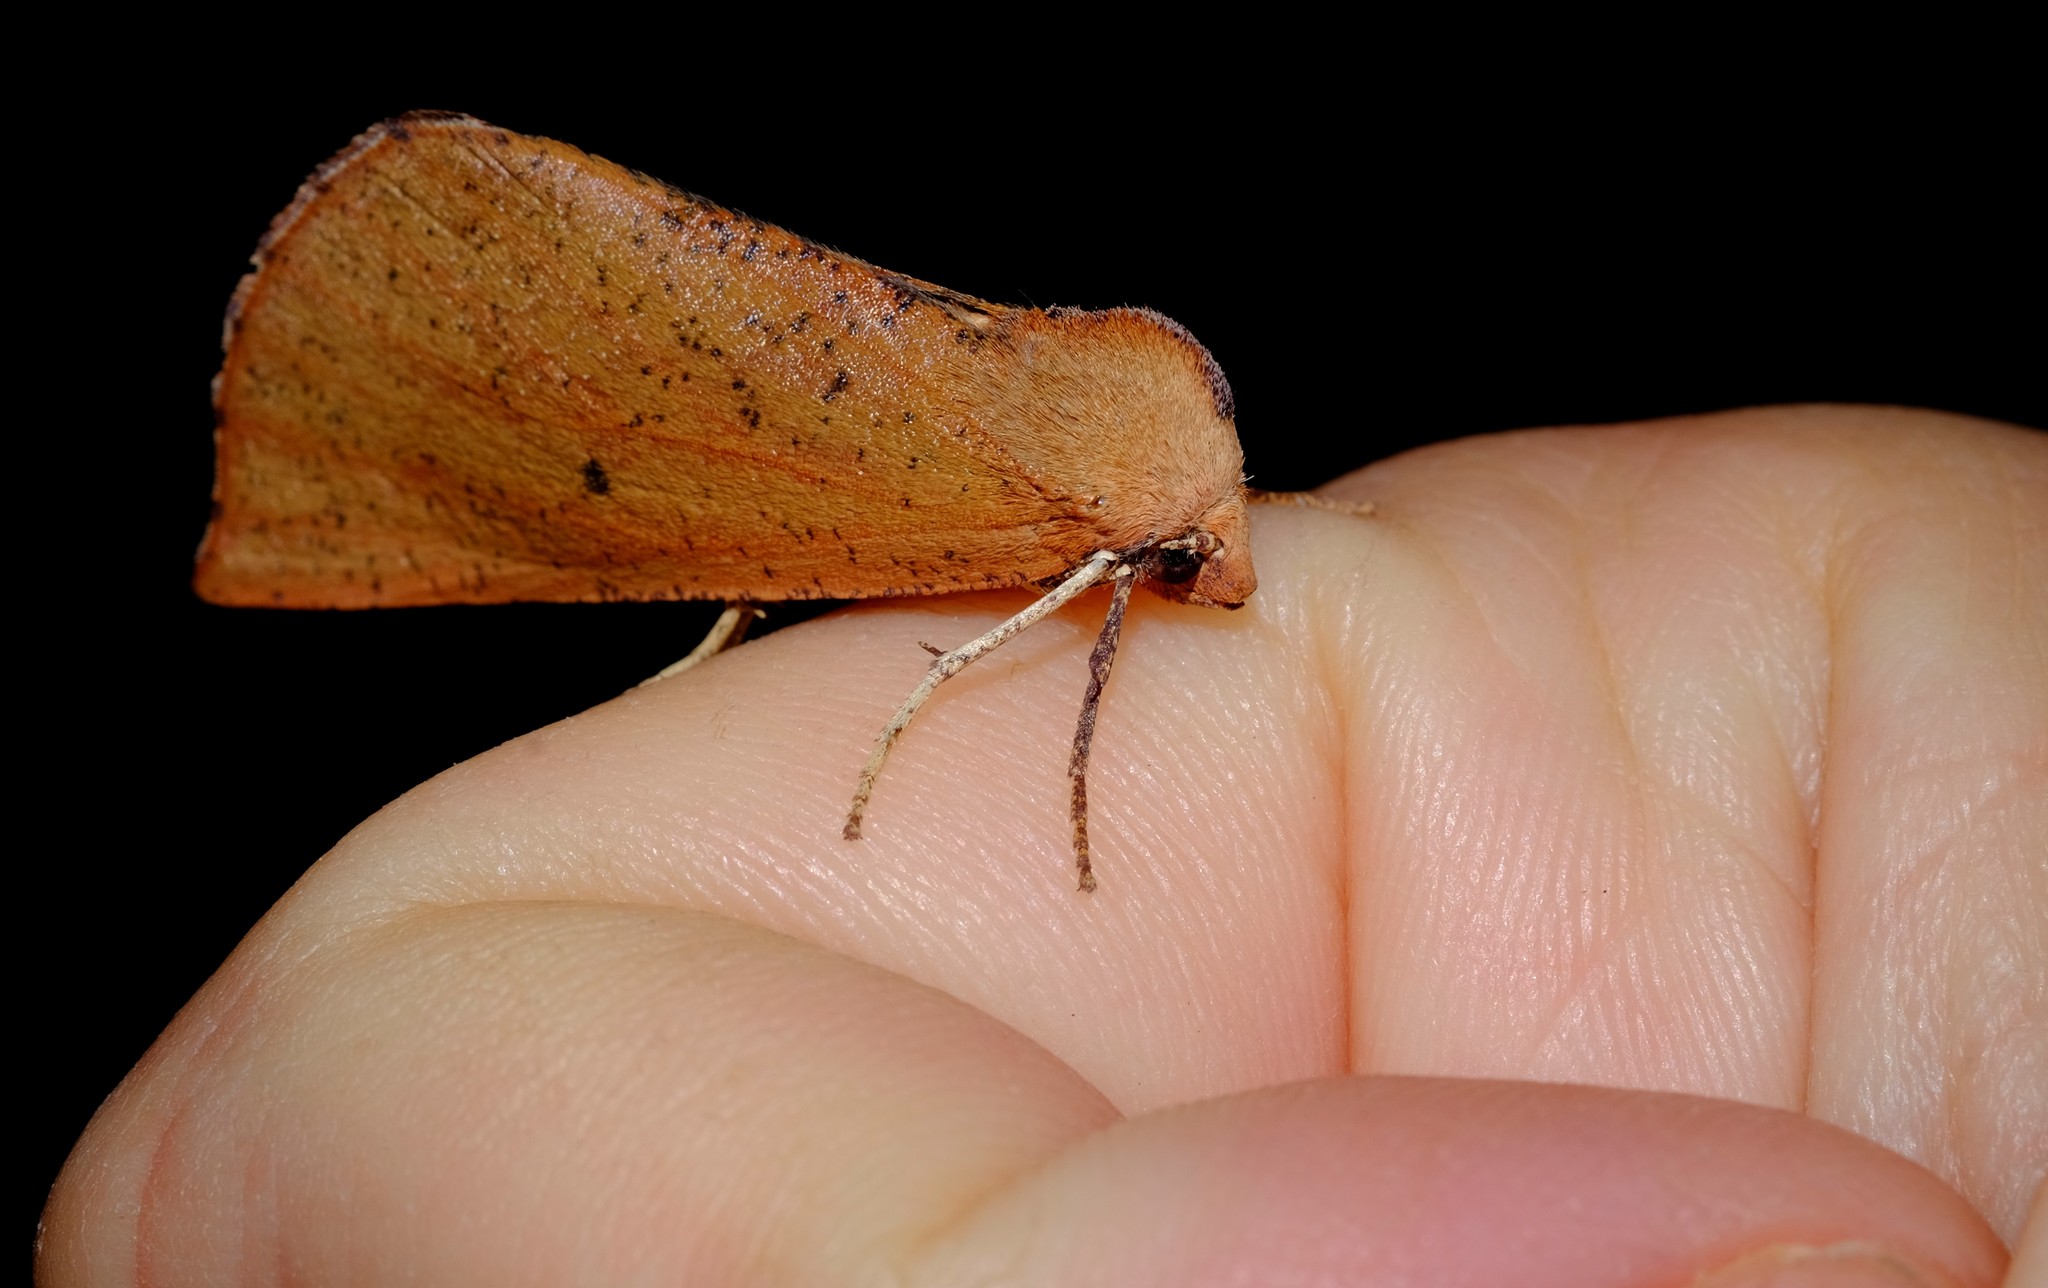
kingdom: Animalia
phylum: Arthropoda
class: Insecta
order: Lepidoptera
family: Geometridae
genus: Fisera
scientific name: Fisera hypoleuca
